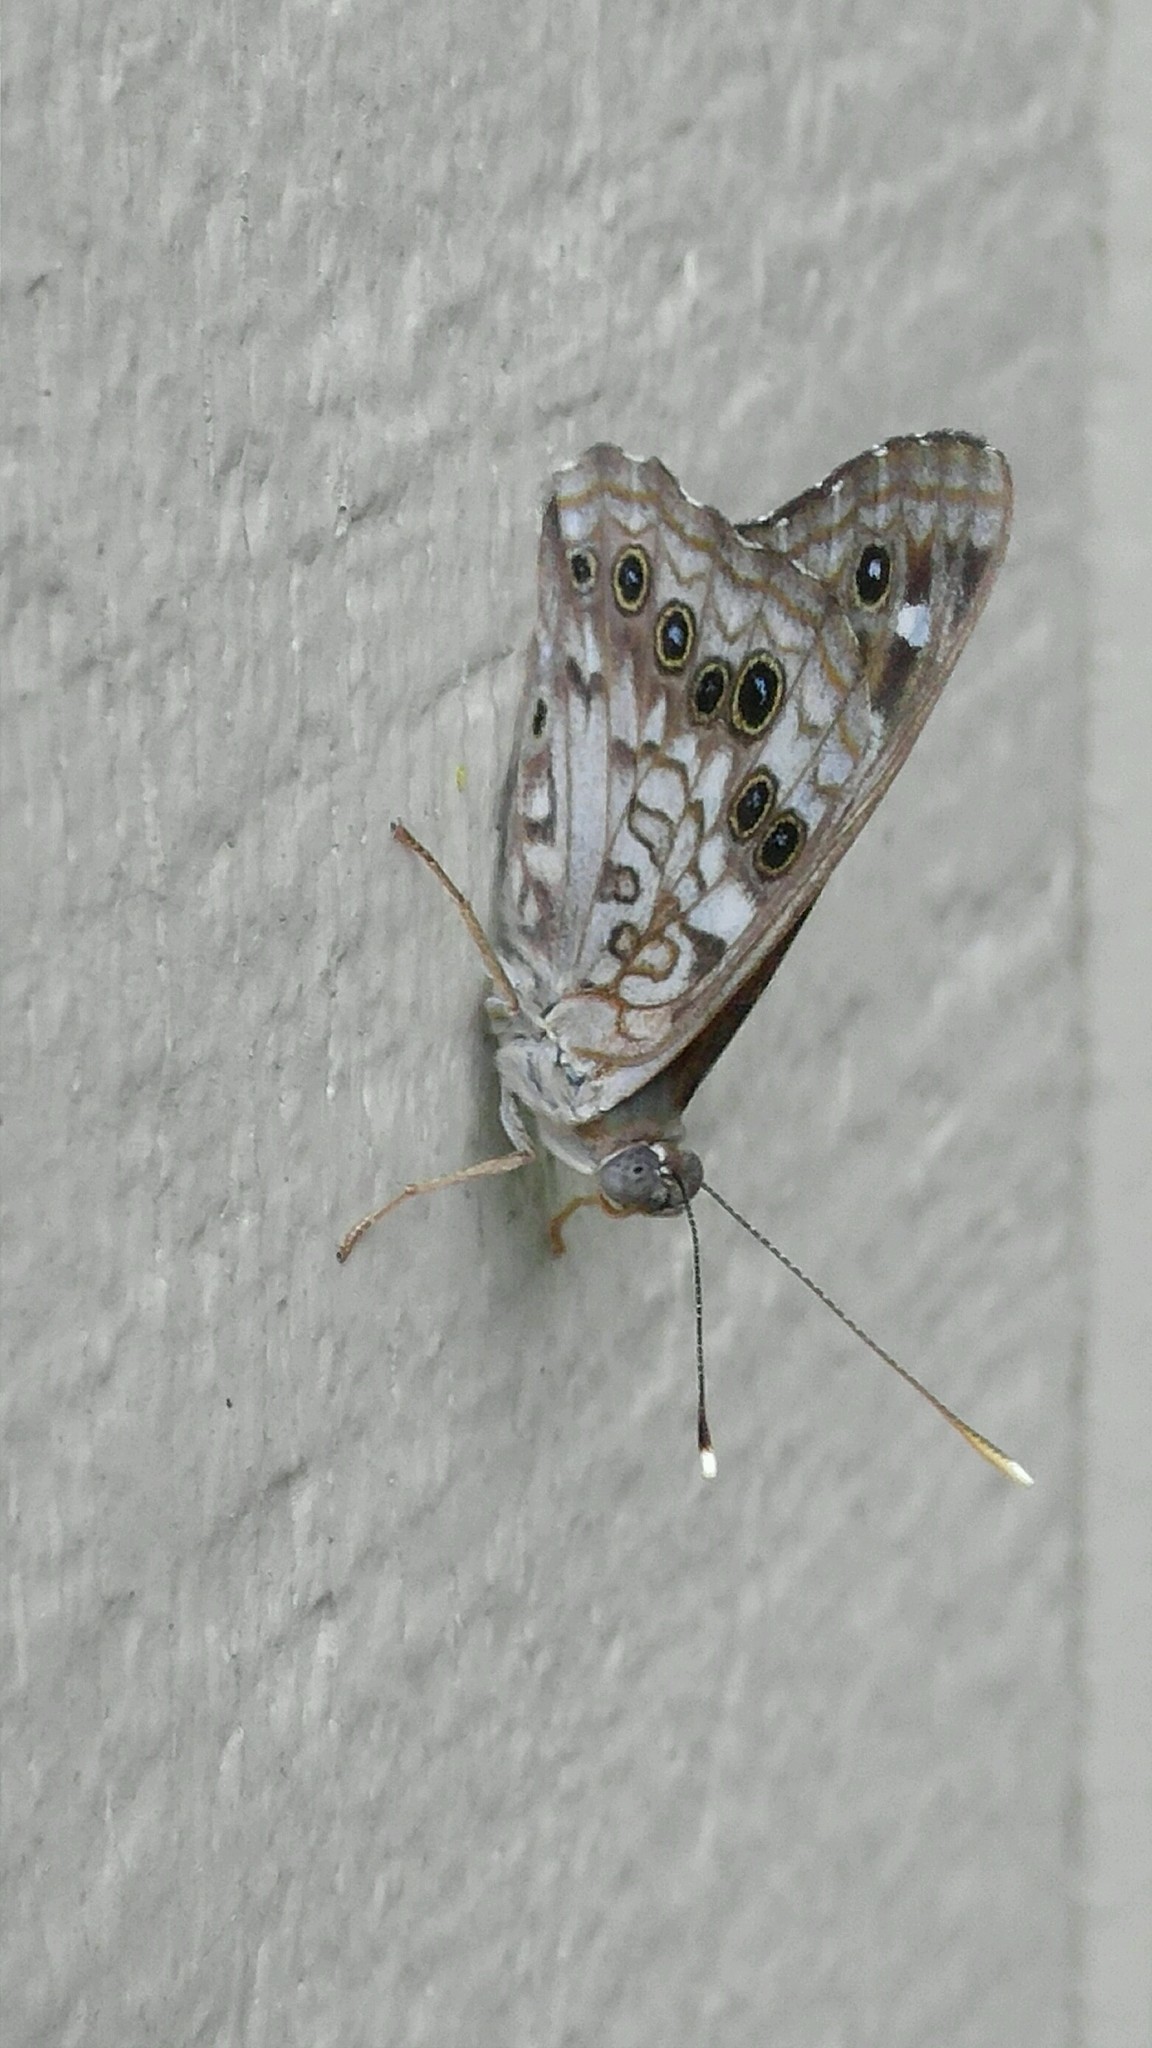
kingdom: Animalia
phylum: Arthropoda
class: Insecta
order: Lepidoptera
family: Nymphalidae
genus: Asterocampa
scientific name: Asterocampa celtis
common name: Hackberry emperor
